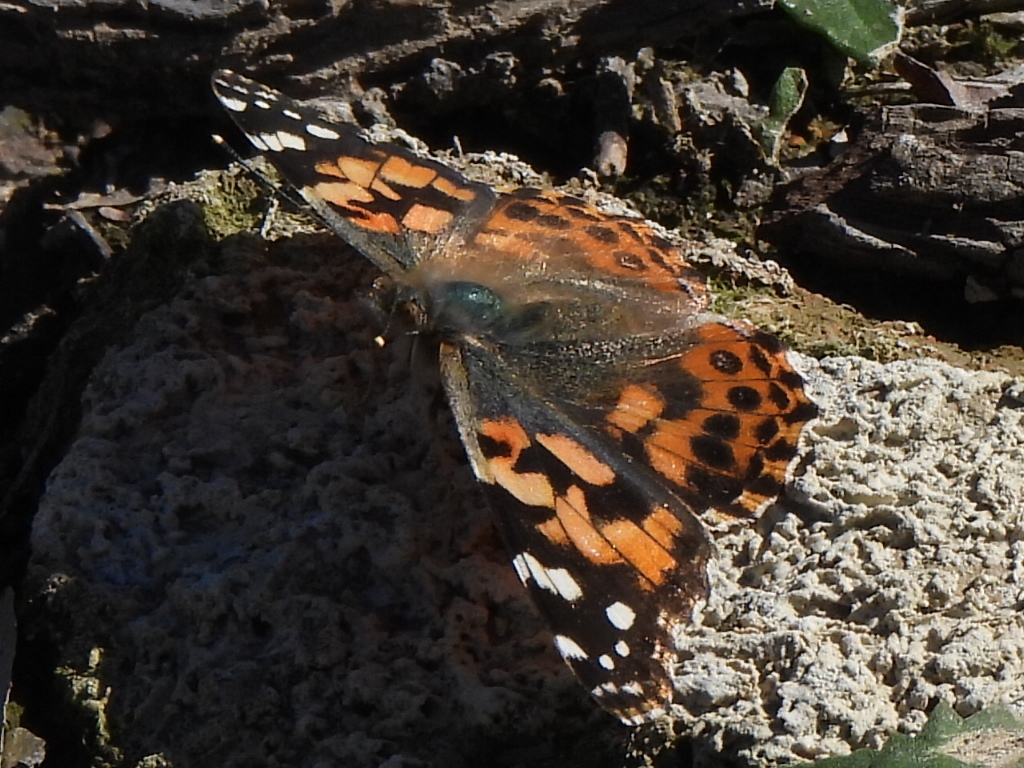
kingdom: Animalia
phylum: Arthropoda
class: Insecta
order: Lepidoptera
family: Nymphalidae
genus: Vanessa
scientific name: Vanessa cardui
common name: Painted lady
